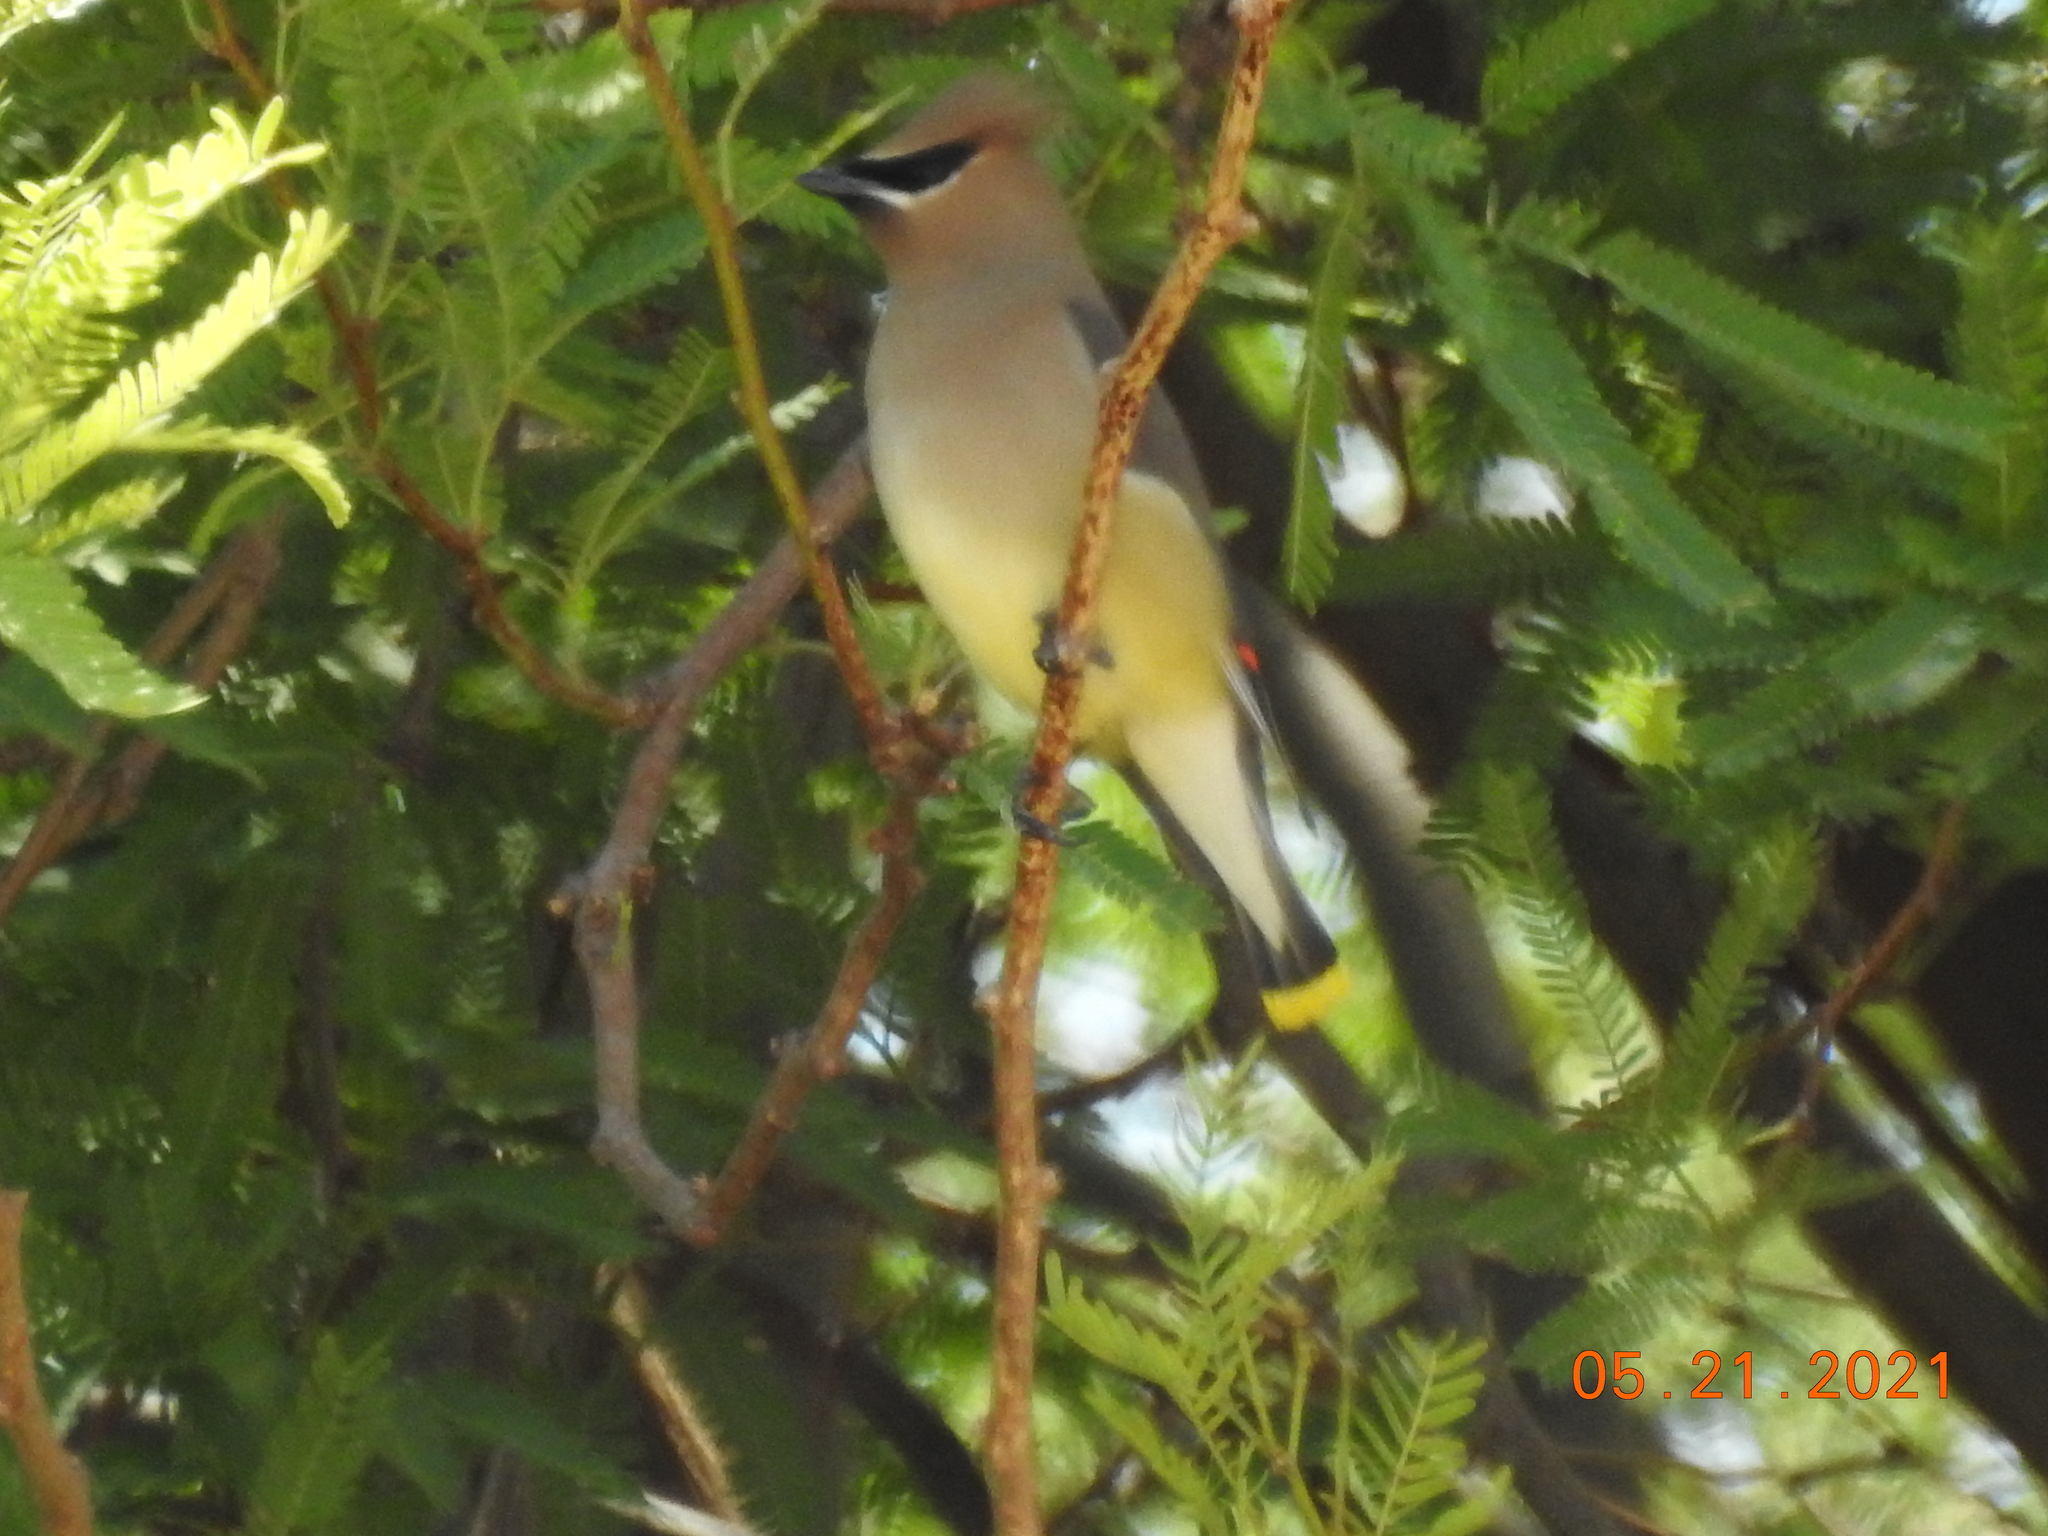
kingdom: Animalia
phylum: Chordata
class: Aves
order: Passeriformes
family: Bombycillidae
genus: Bombycilla
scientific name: Bombycilla cedrorum
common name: Cedar waxwing
